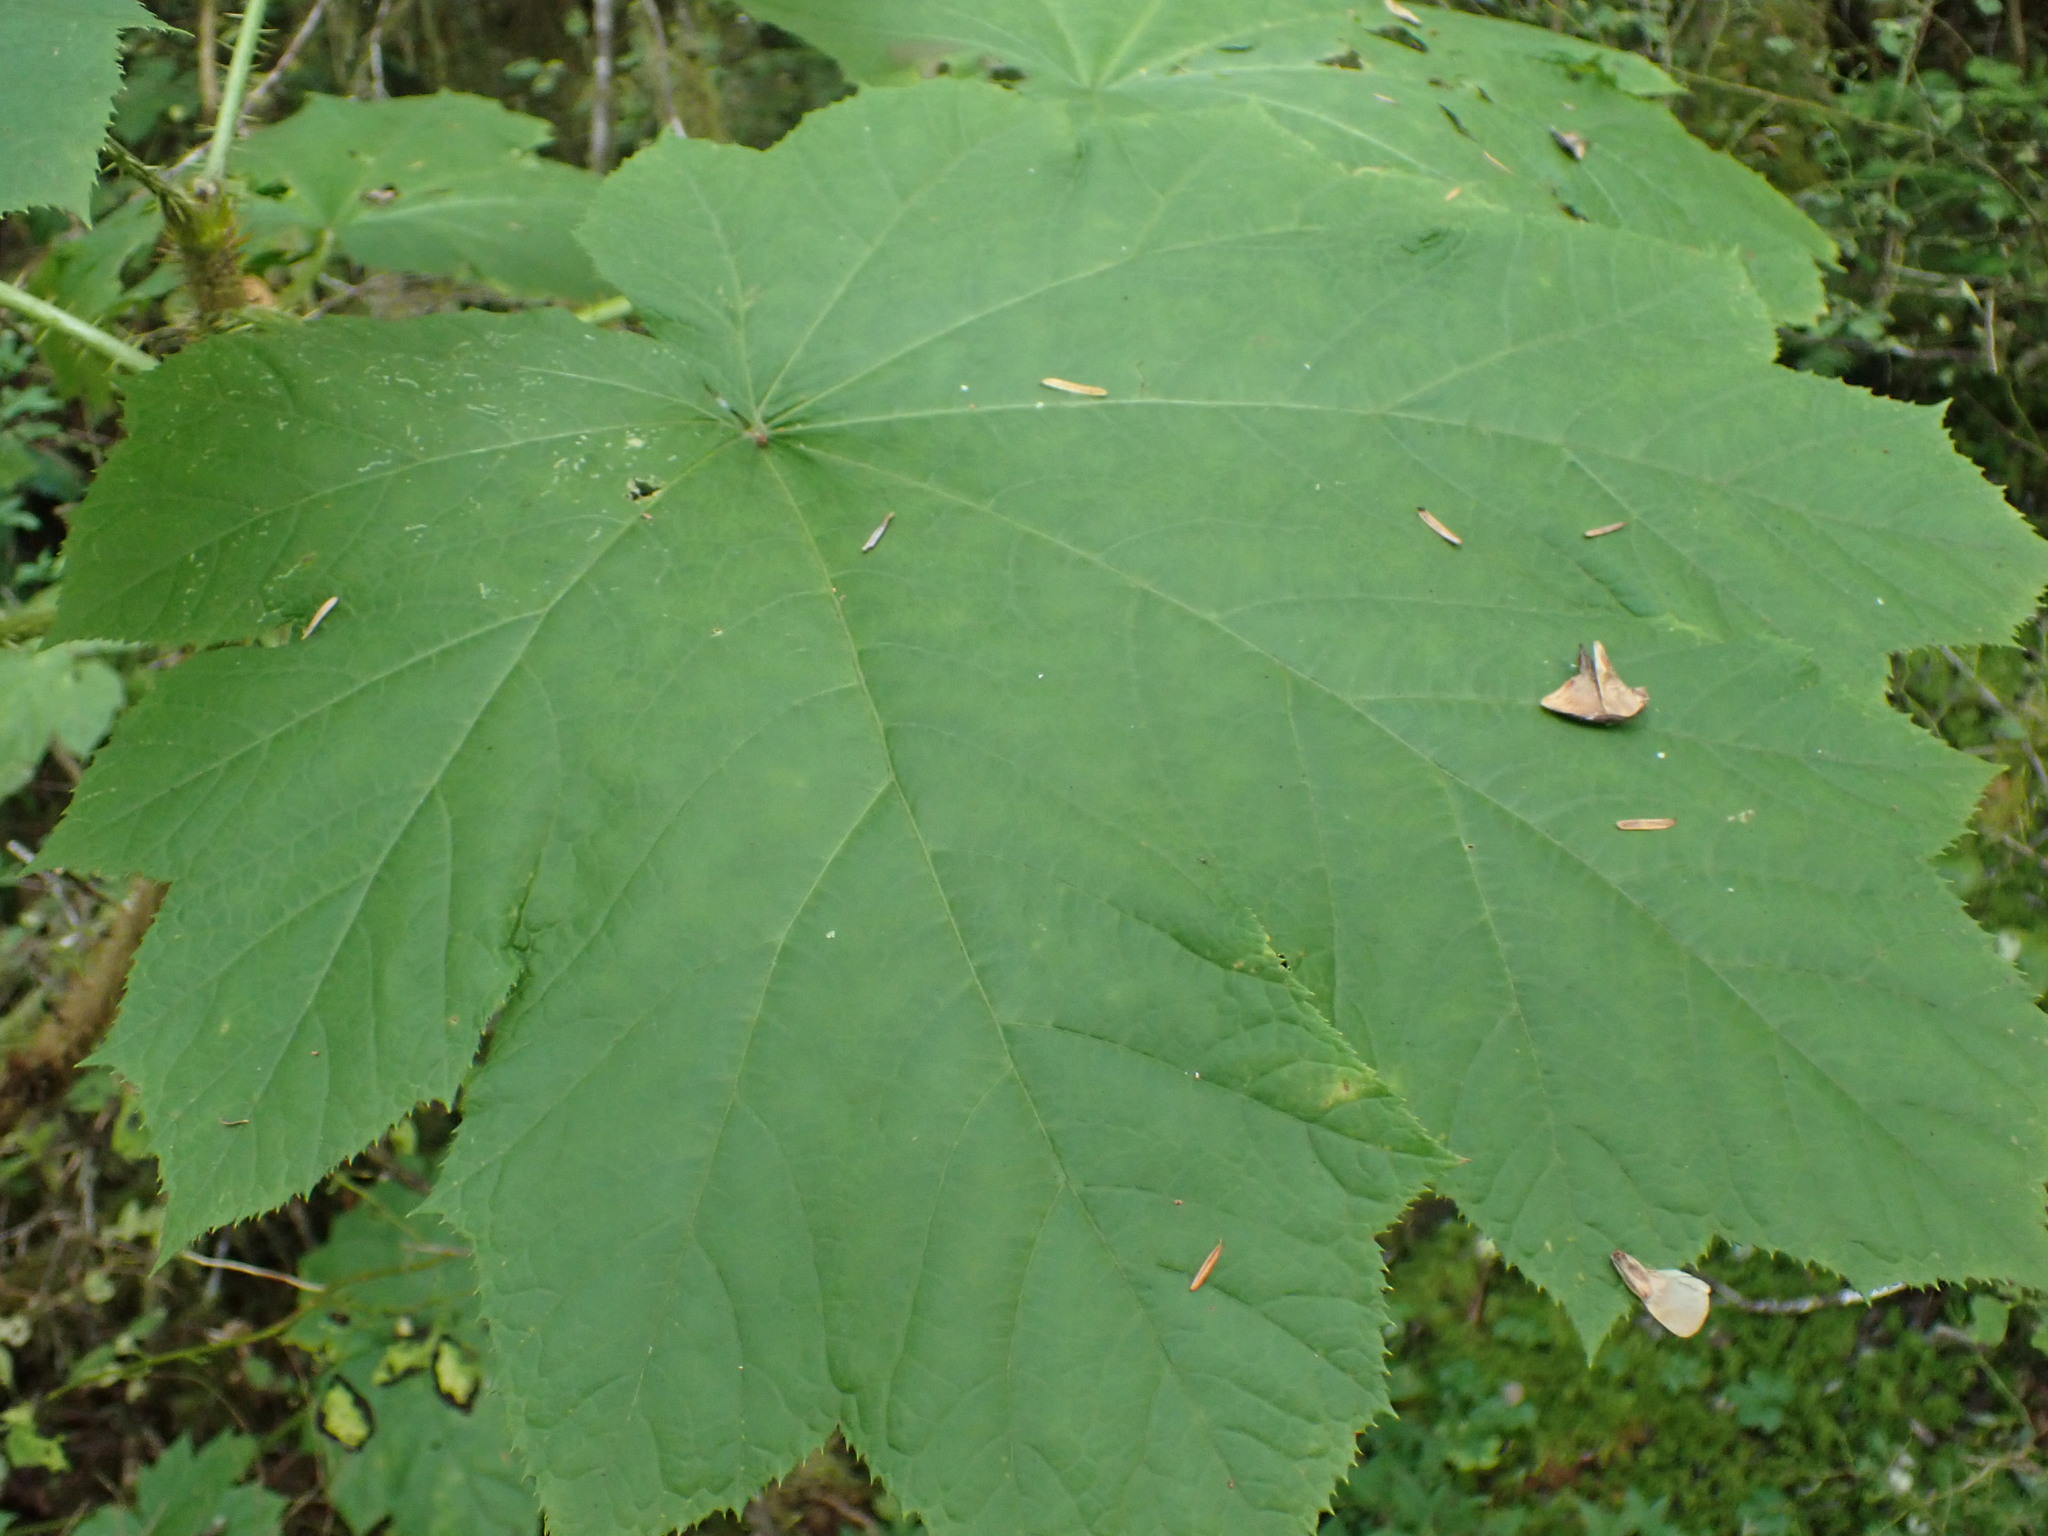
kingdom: Plantae
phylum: Tracheophyta
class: Magnoliopsida
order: Apiales
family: Araliaceae
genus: Oplopanax
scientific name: Oplopanax horridus
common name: Devil's walking-stick
